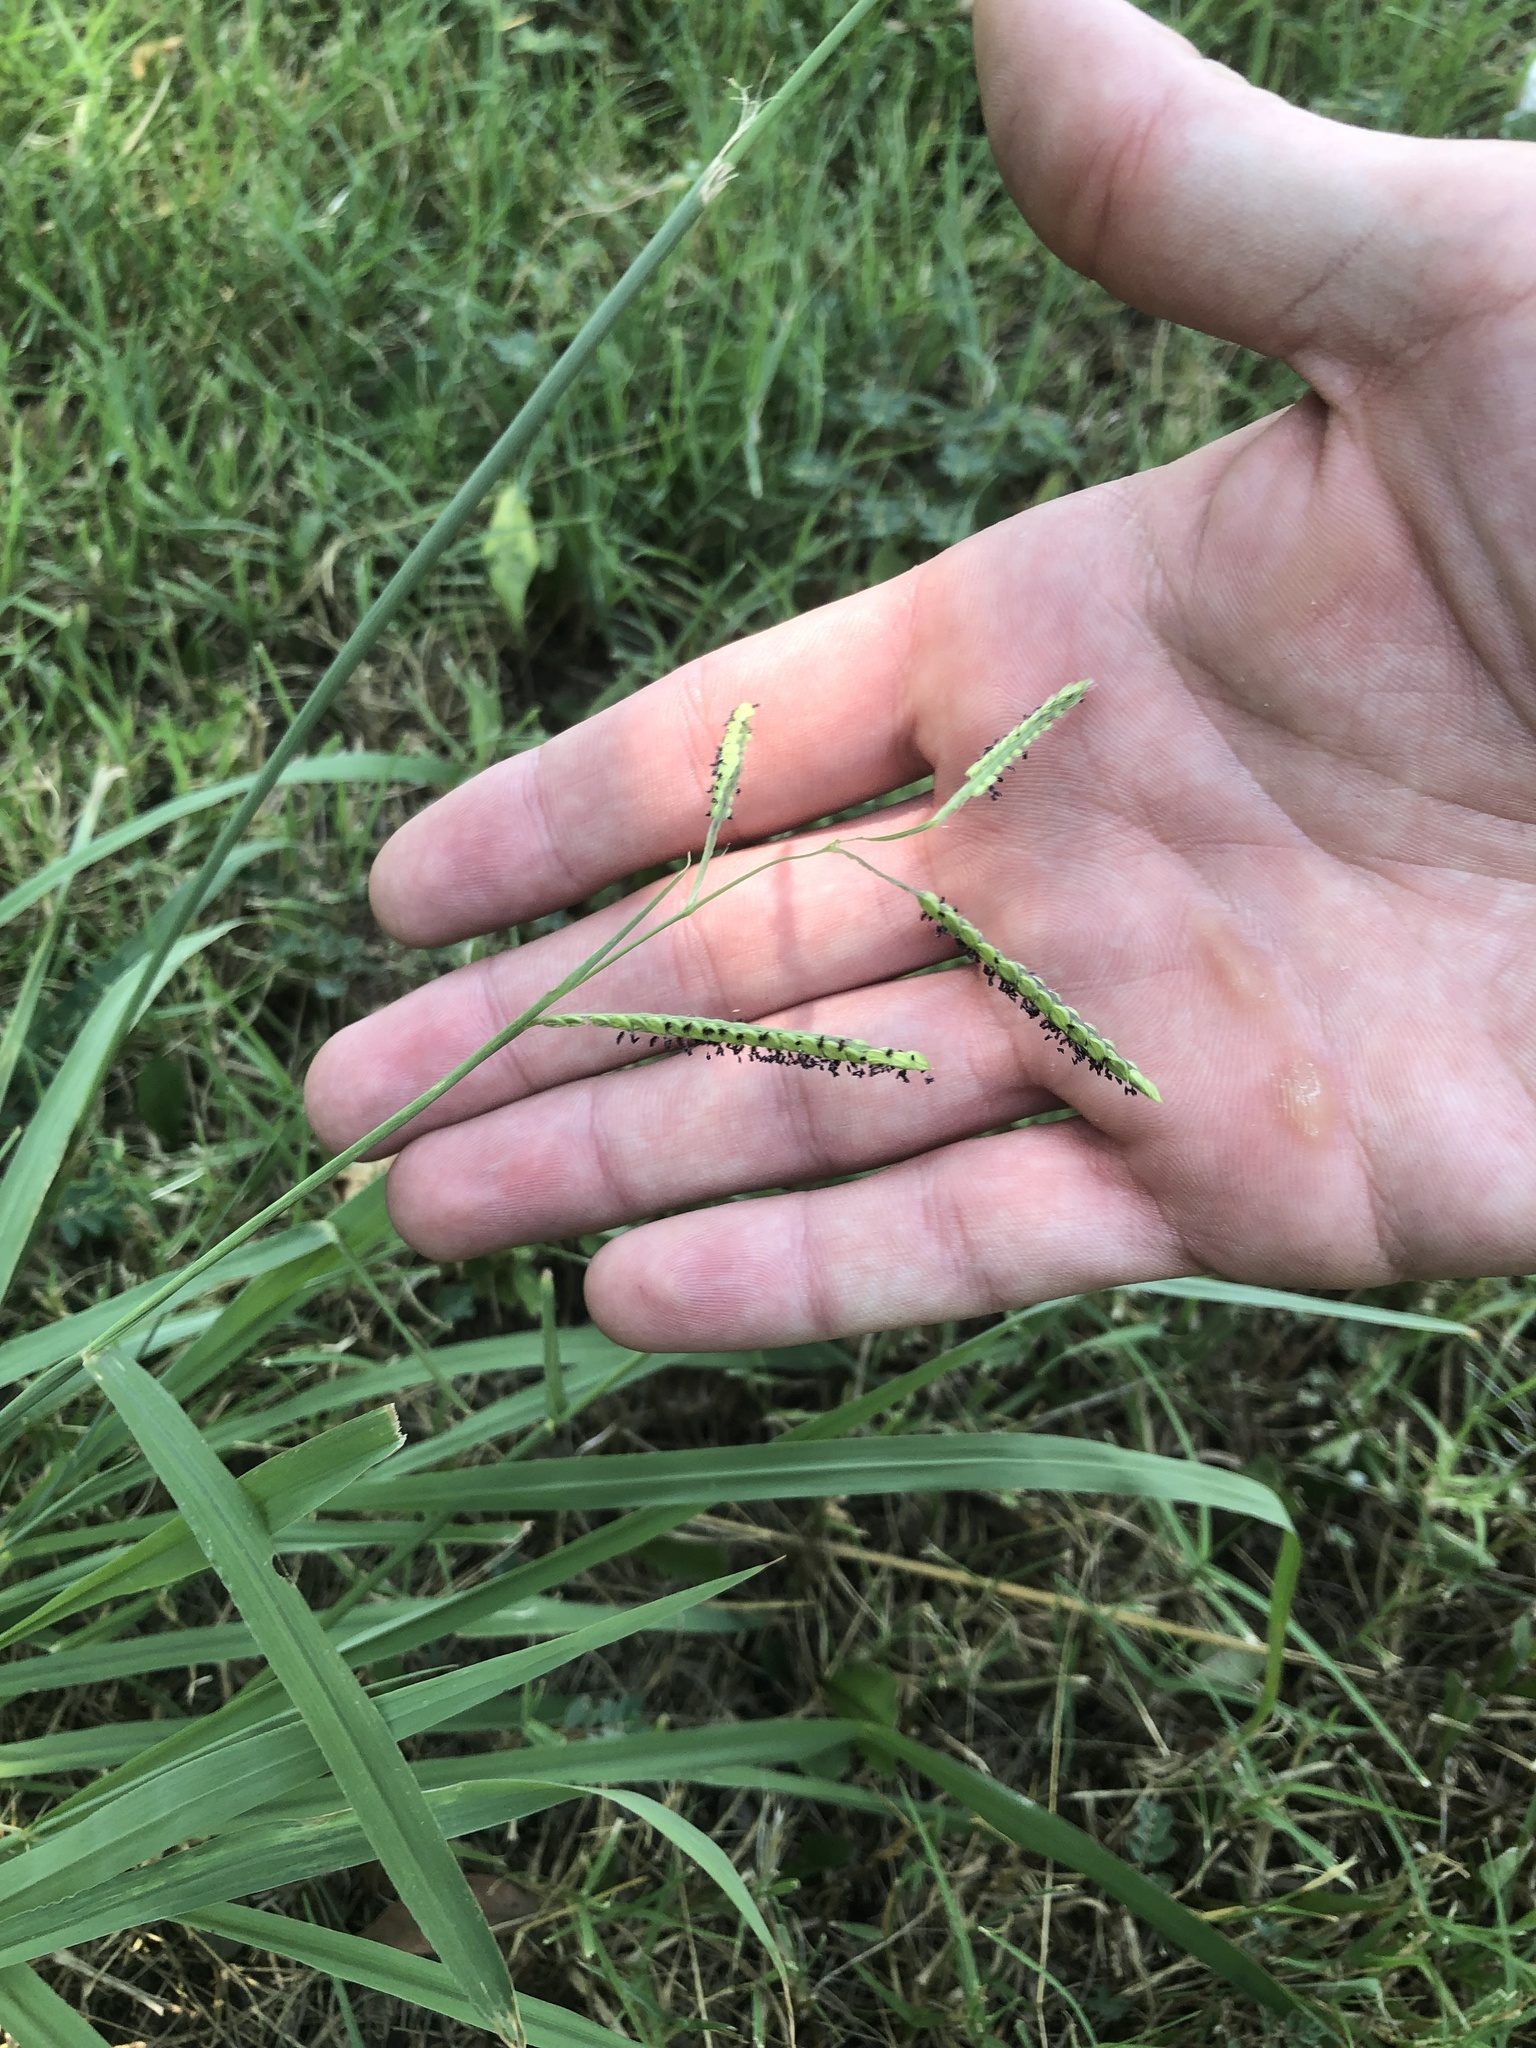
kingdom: Plantae
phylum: Tracheophyta
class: Liliopsida
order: Poales
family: Poaceae
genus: Paspalum
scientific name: Paspalum dilatatum
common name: Dallisgrass
